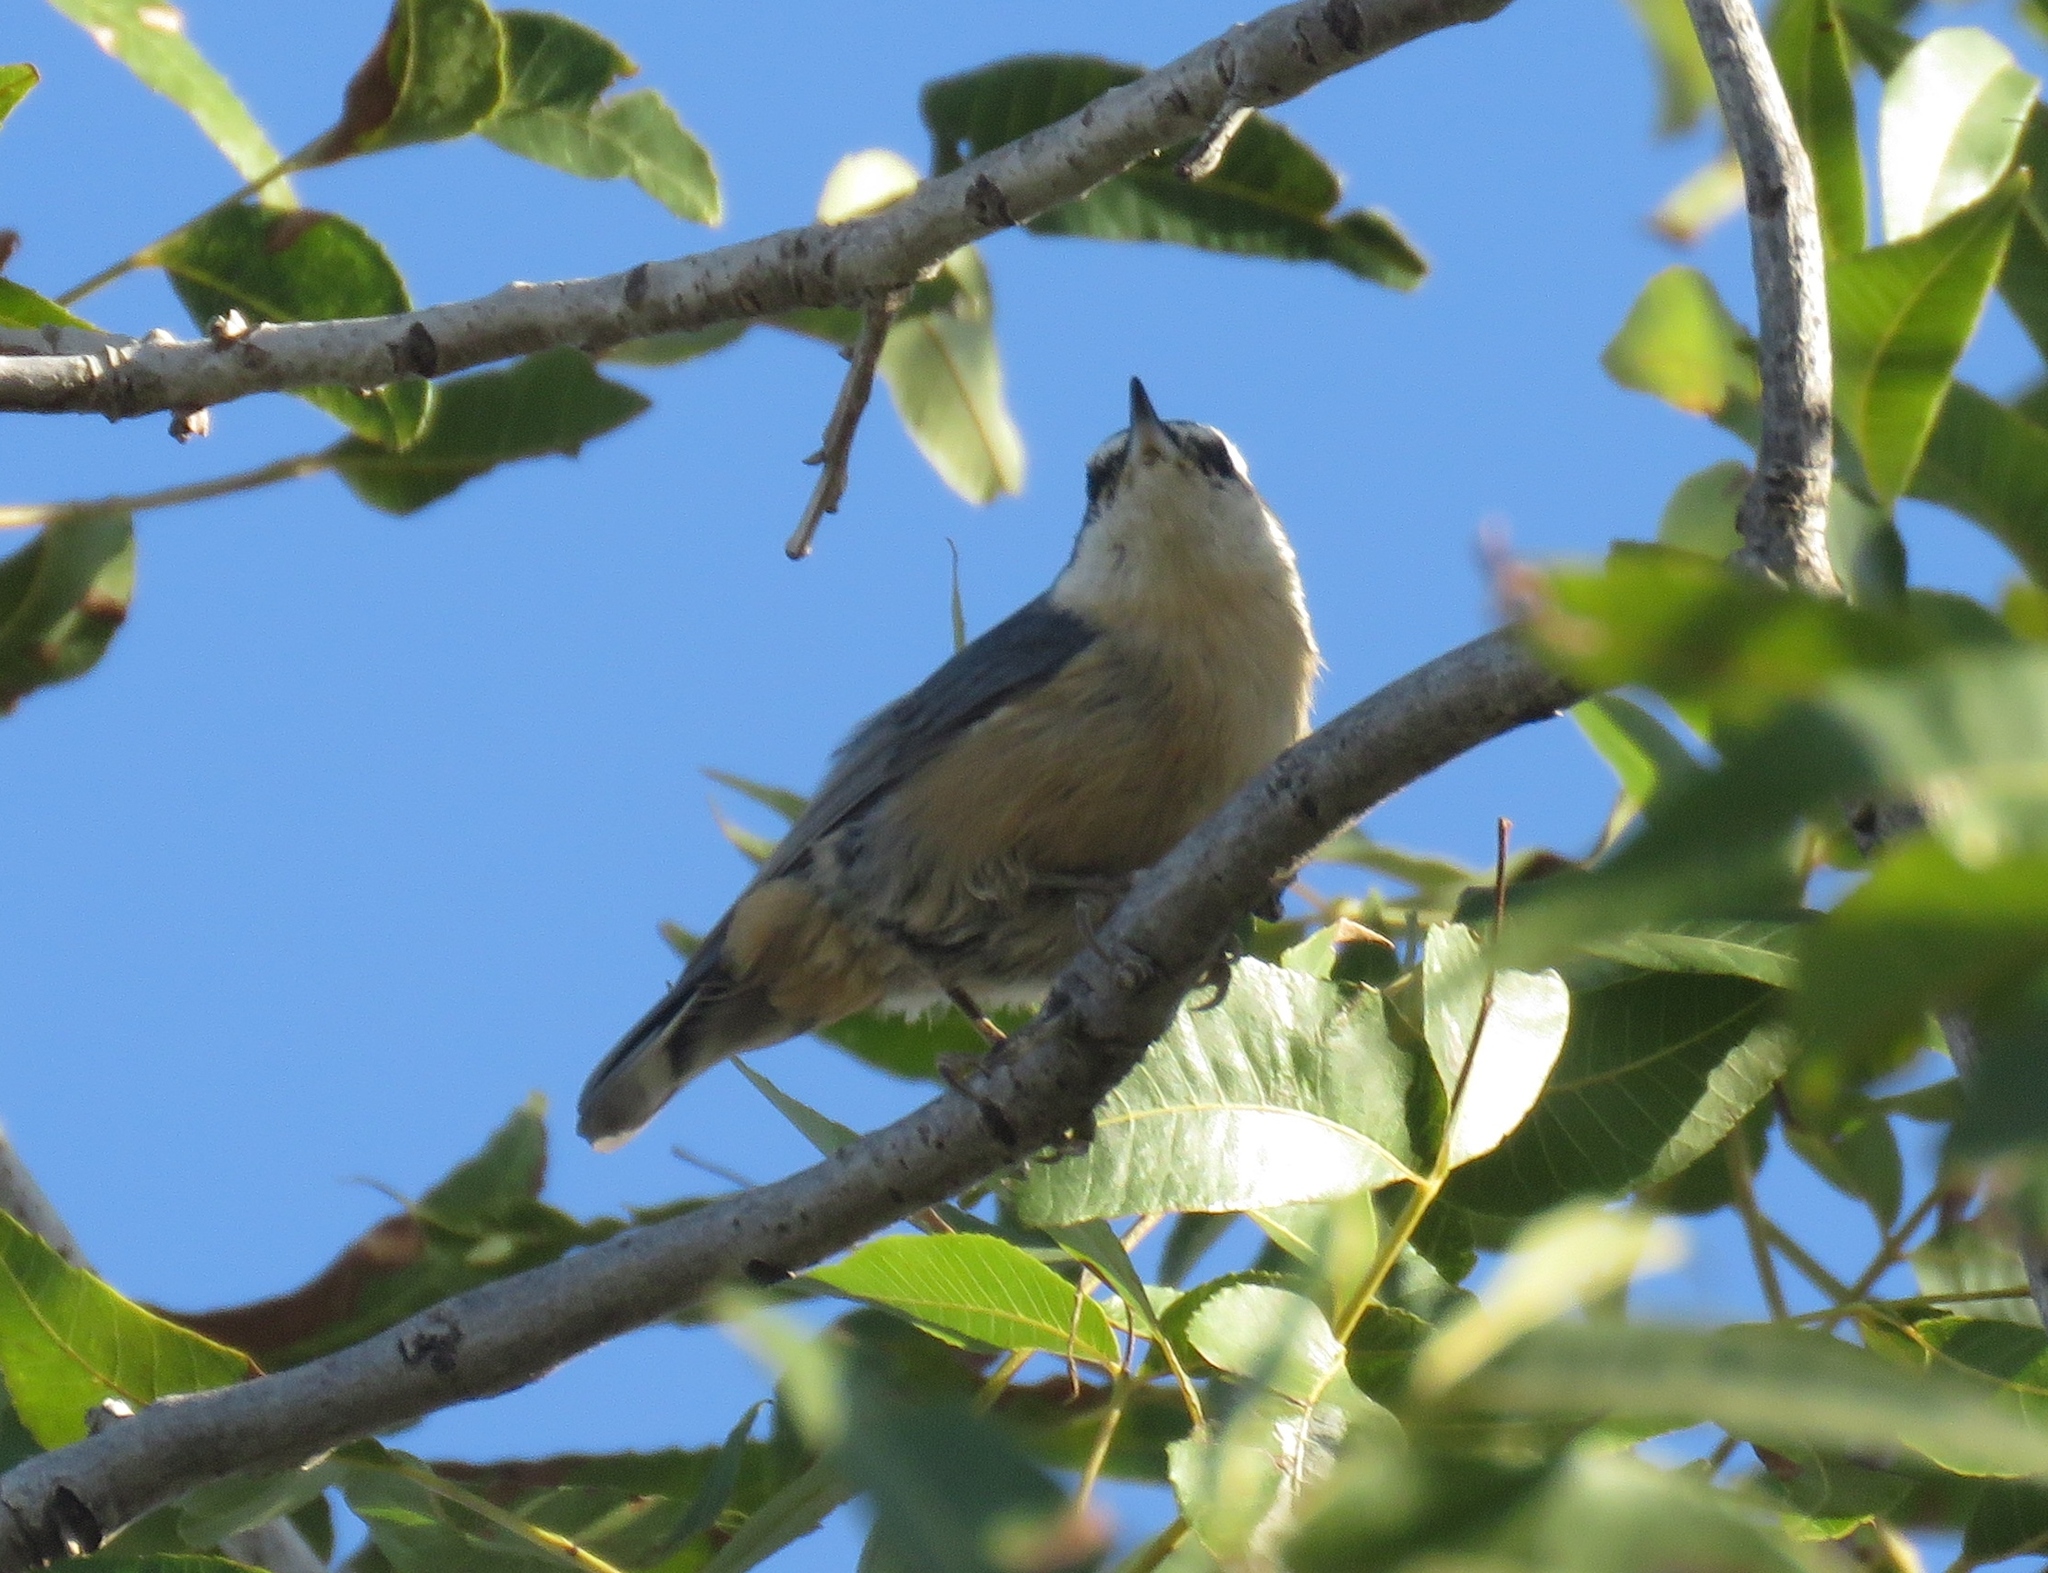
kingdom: Animalia
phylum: Chordata
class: Aves
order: Passeriformes
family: Sittidae
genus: Sitta
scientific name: Sitta canadensis
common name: Red-breasted nuthatch
